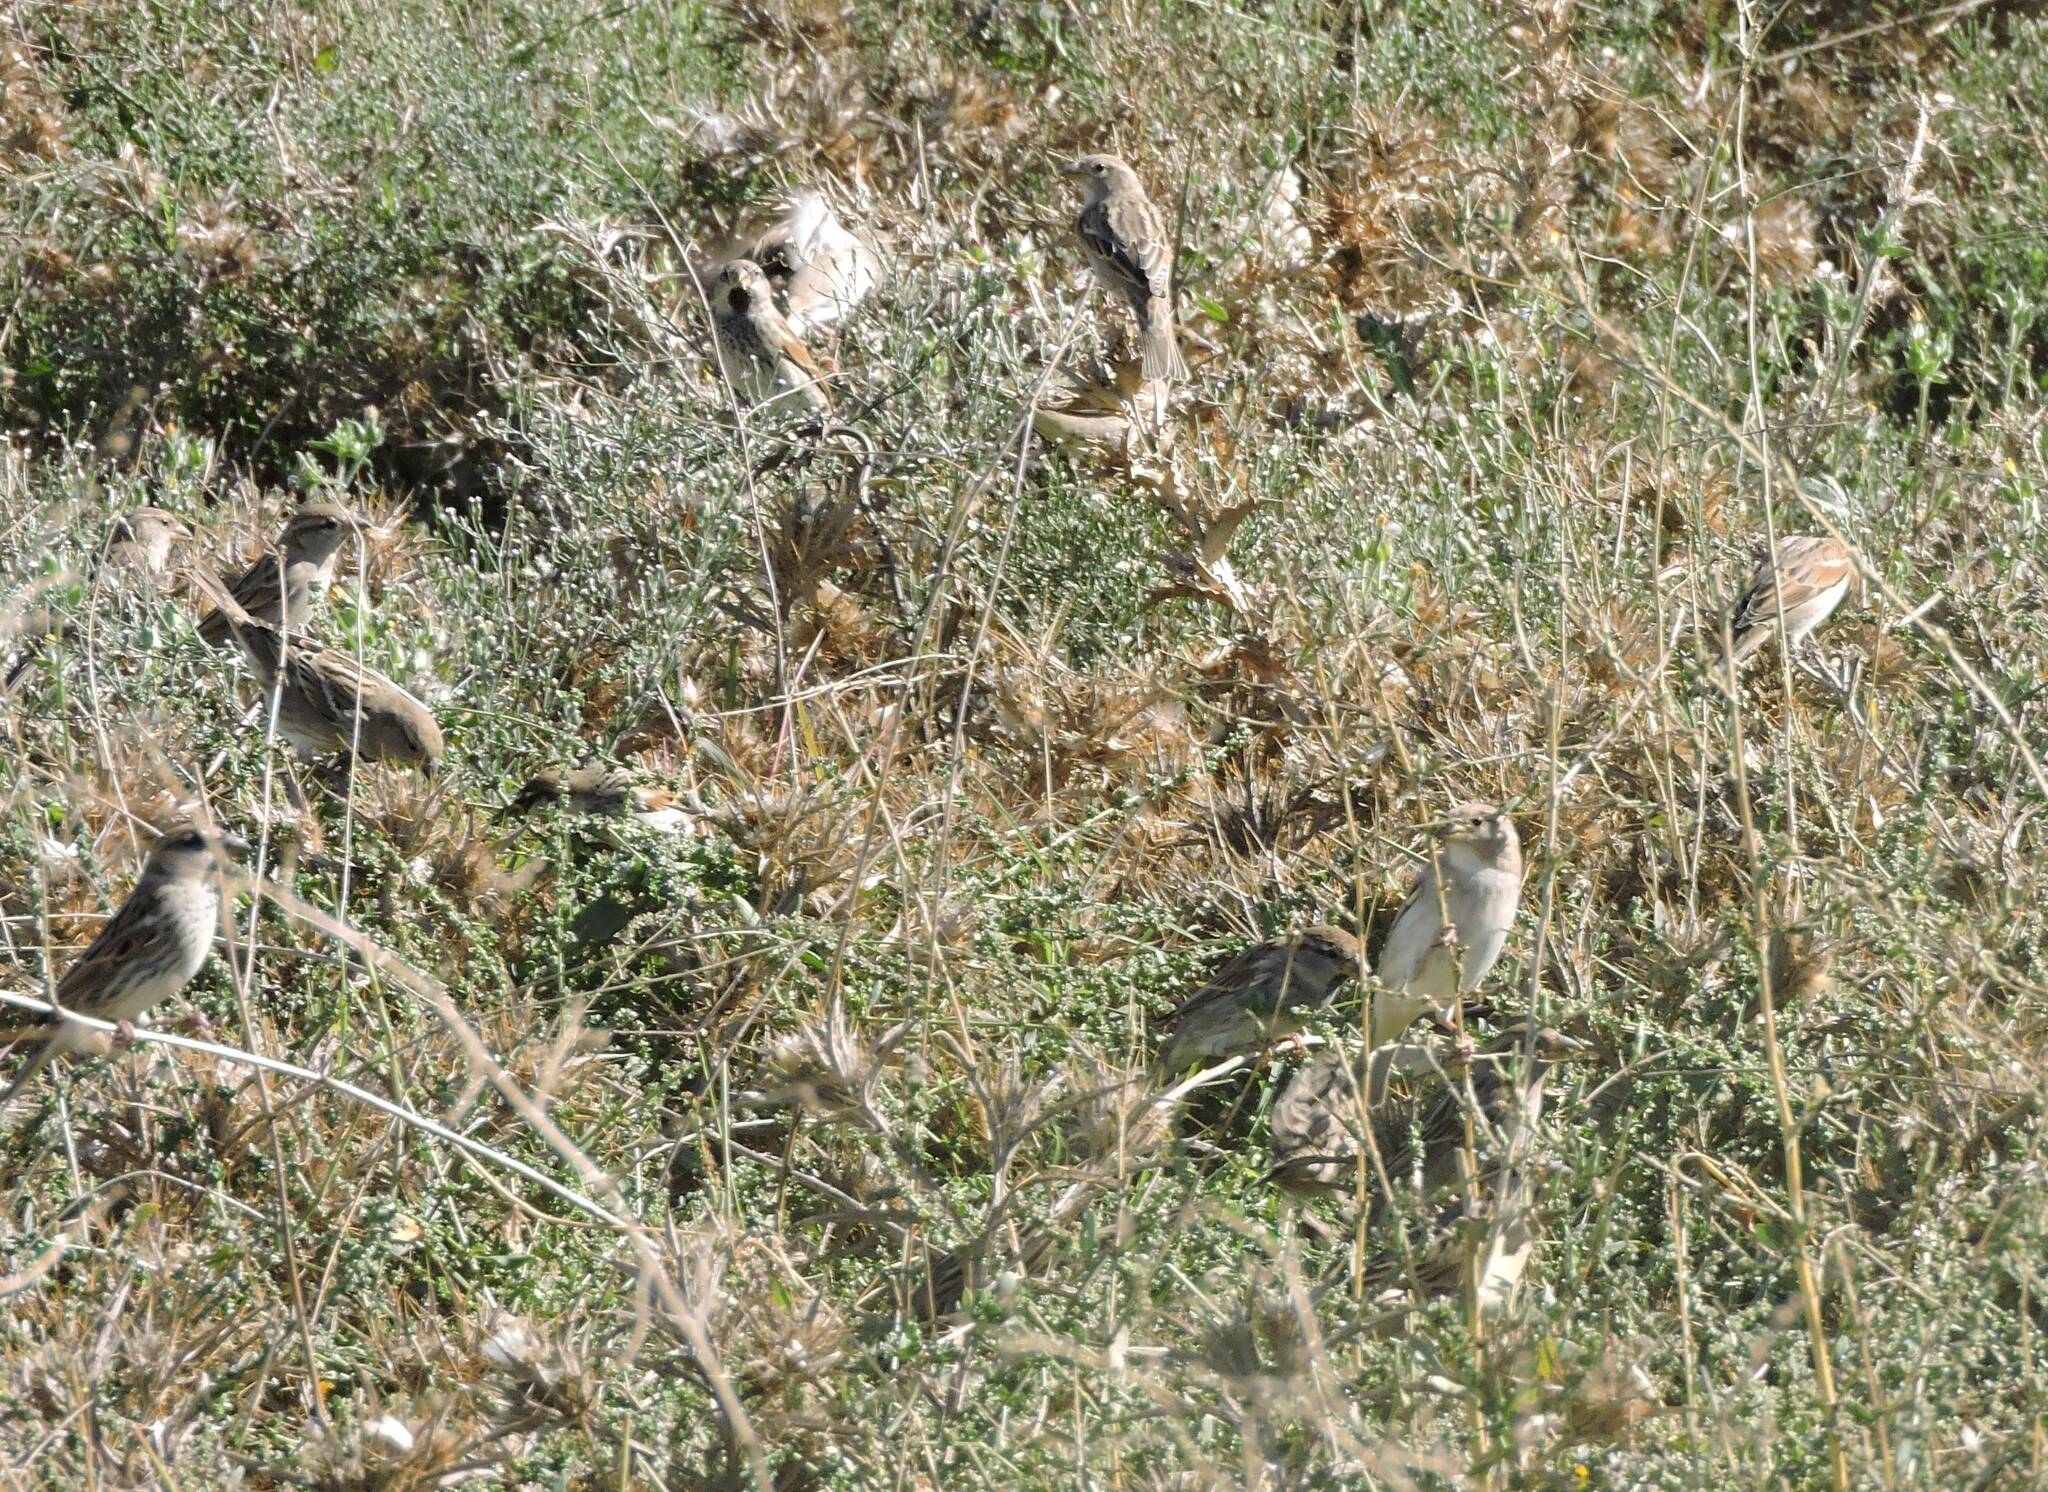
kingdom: Animalia
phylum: Chordata
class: Aves
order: Passeriformes
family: Passeridae
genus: Passer
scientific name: Passer hispaniolensis
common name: Spanish sparrow
